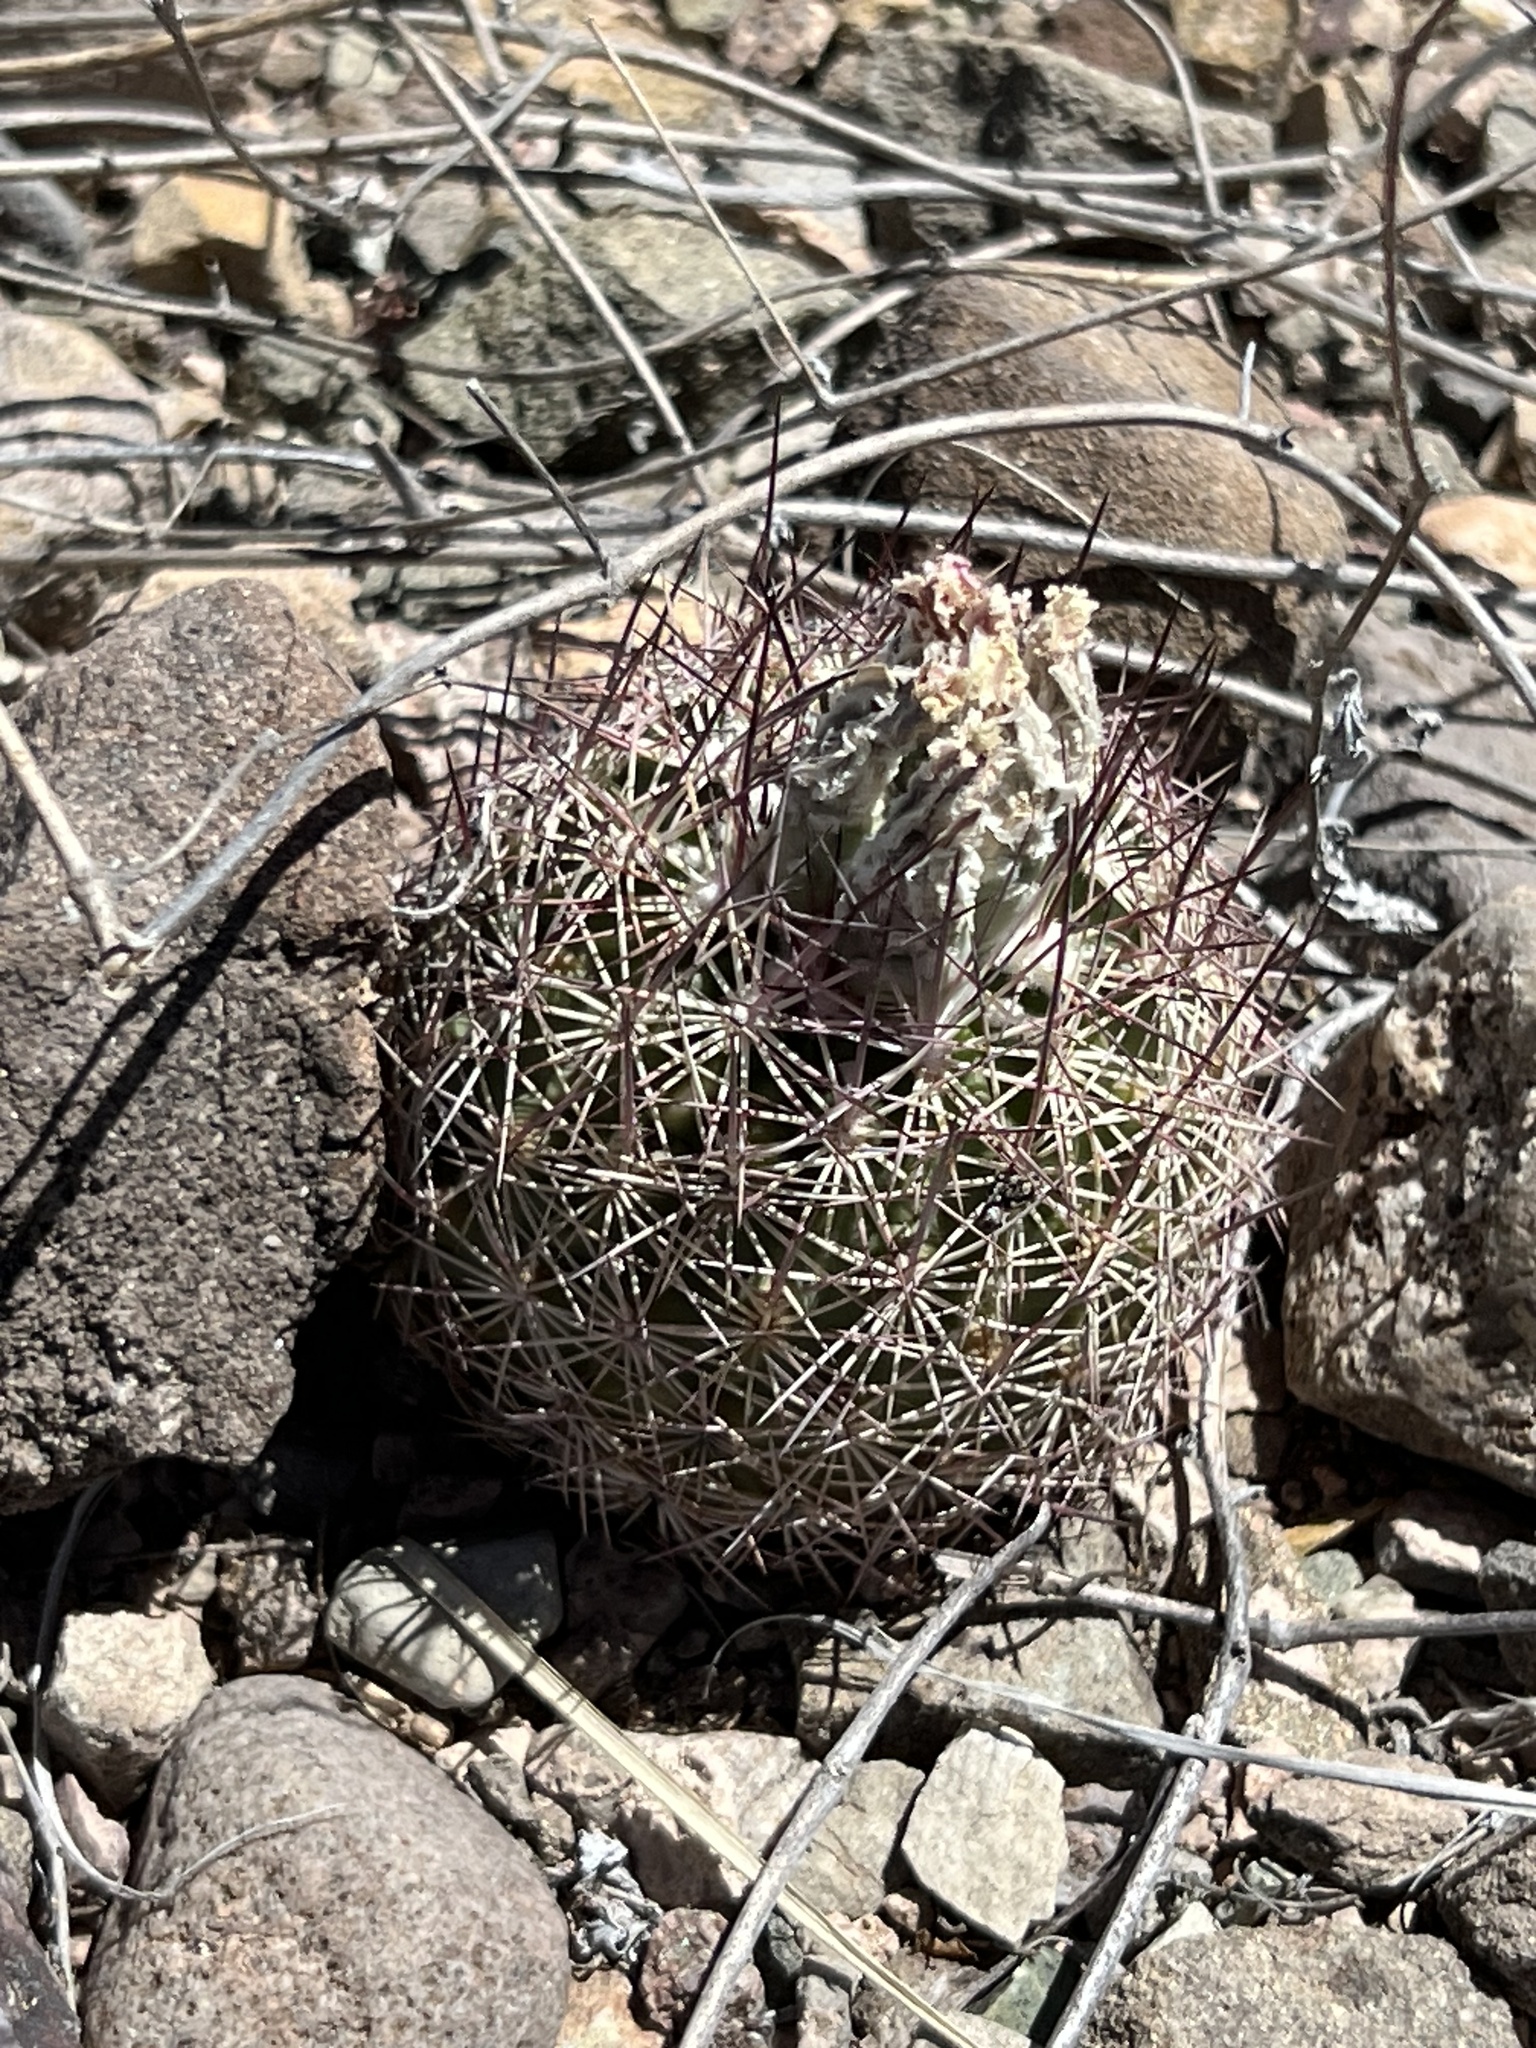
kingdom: Plantae
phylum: Tracheophyta
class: Magnoliopsida
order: Caryophyllales
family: Cactaceae
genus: Sclerocactus
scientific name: Sclerocactus johnsonii
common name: Eight-spine fishhook cactus
